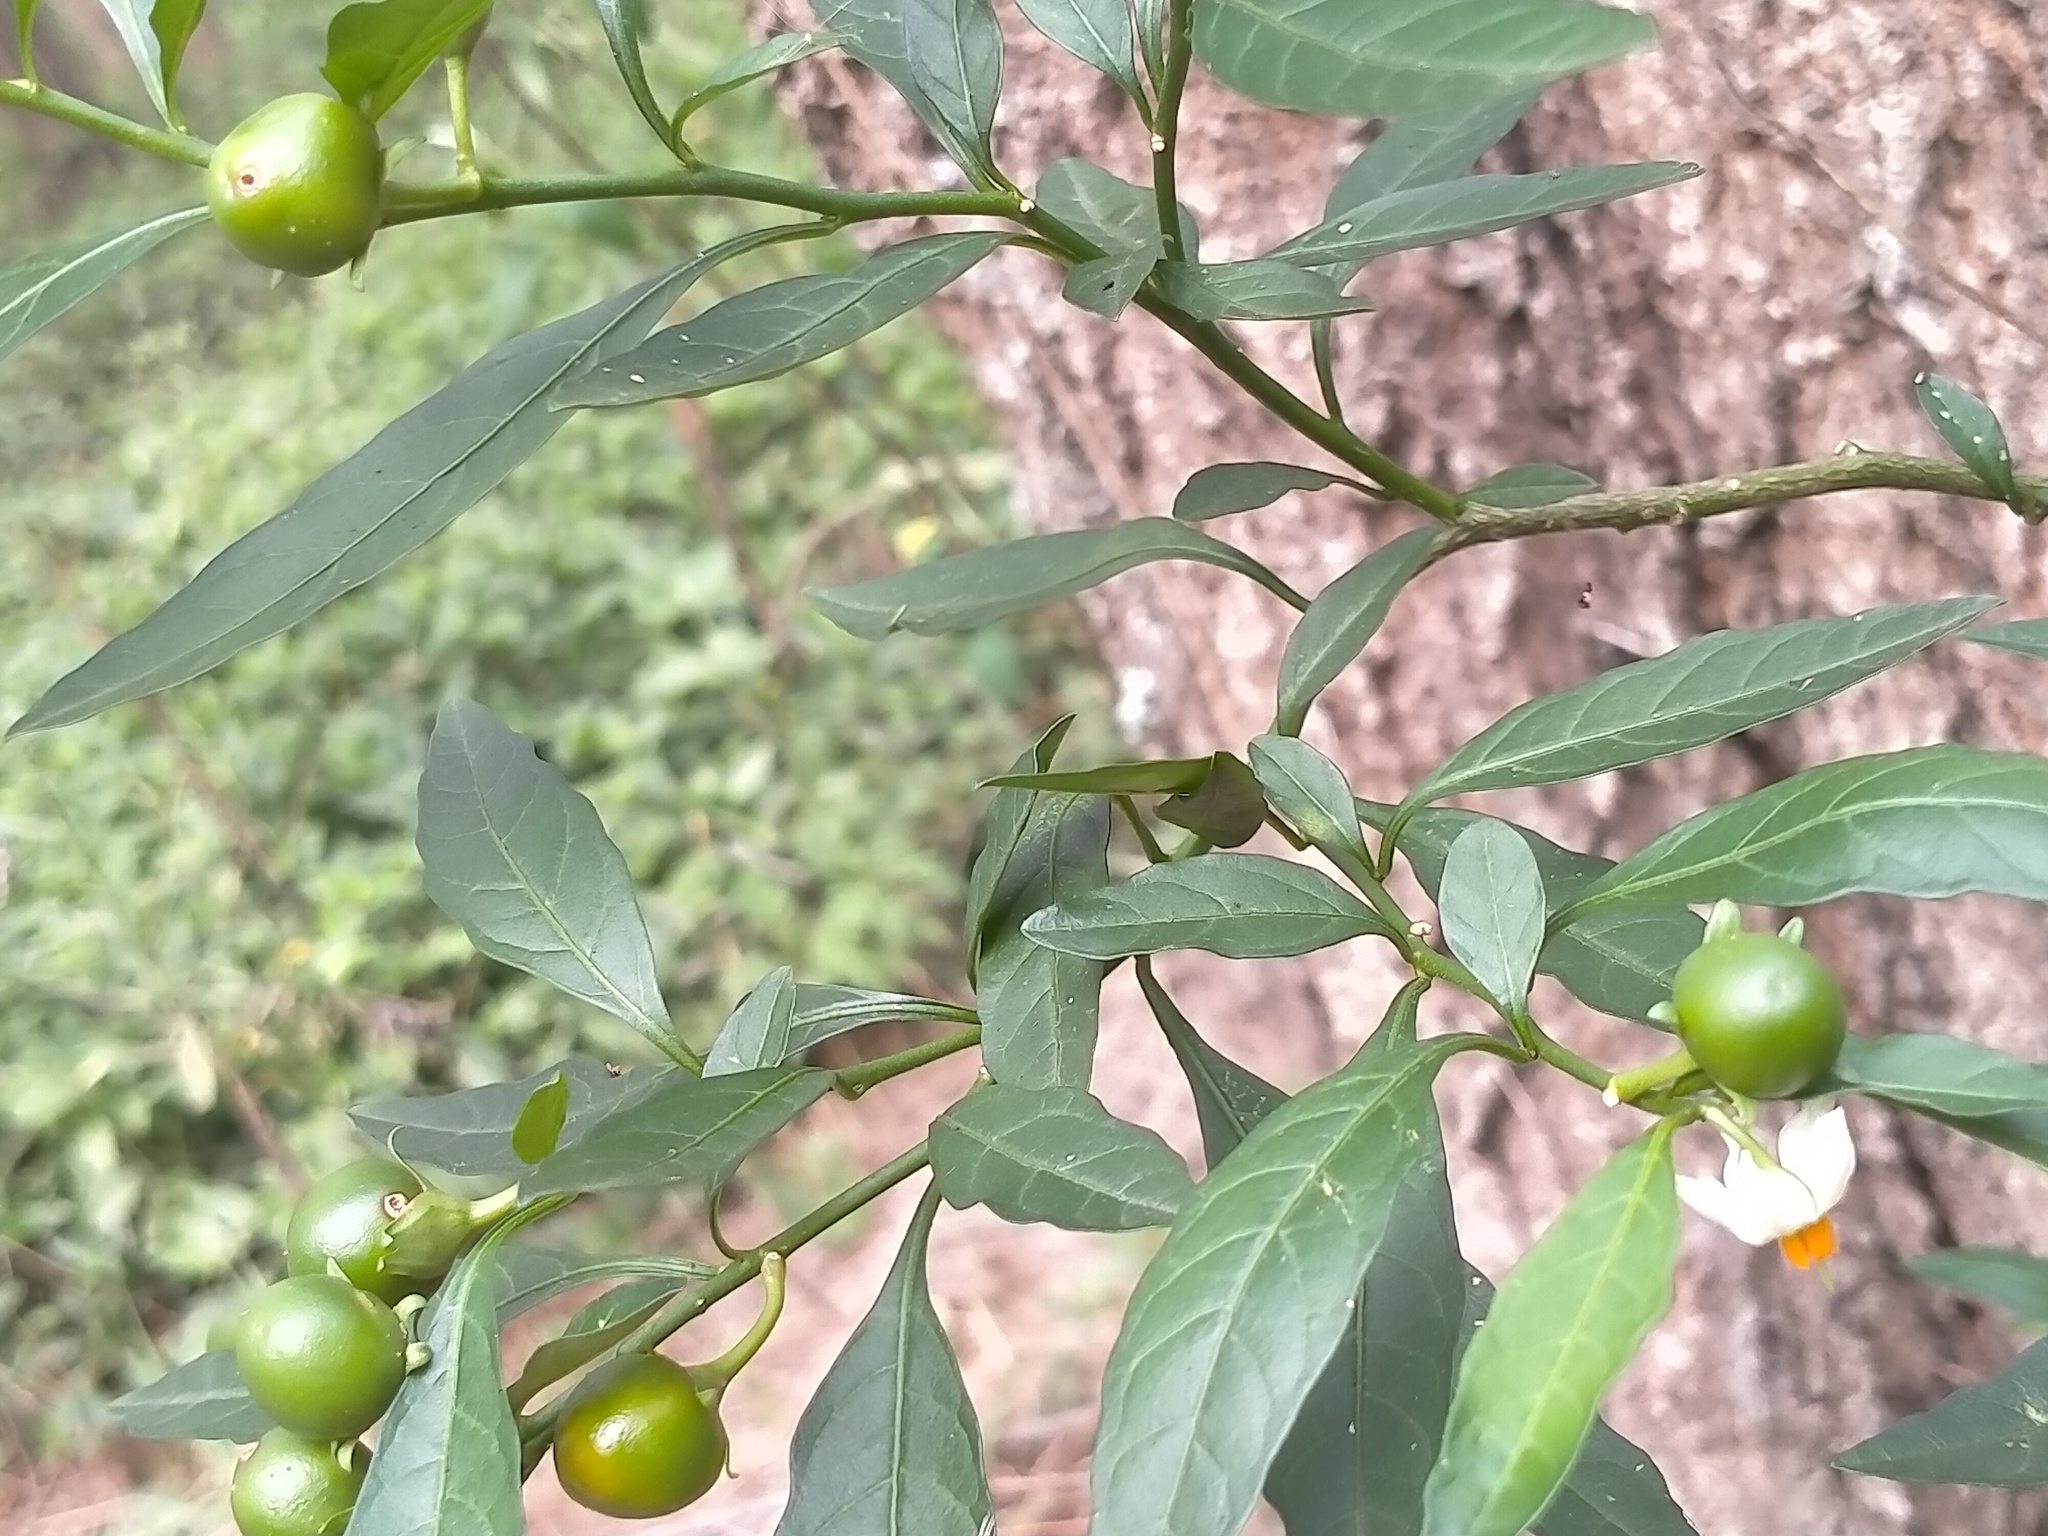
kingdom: Plantae
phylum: Tracheophyta
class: Magnoliopsida
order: Solanales
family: Solanaceae
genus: Solanum
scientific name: Solanum pseudocapsicum
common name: Jerusalem cherry
